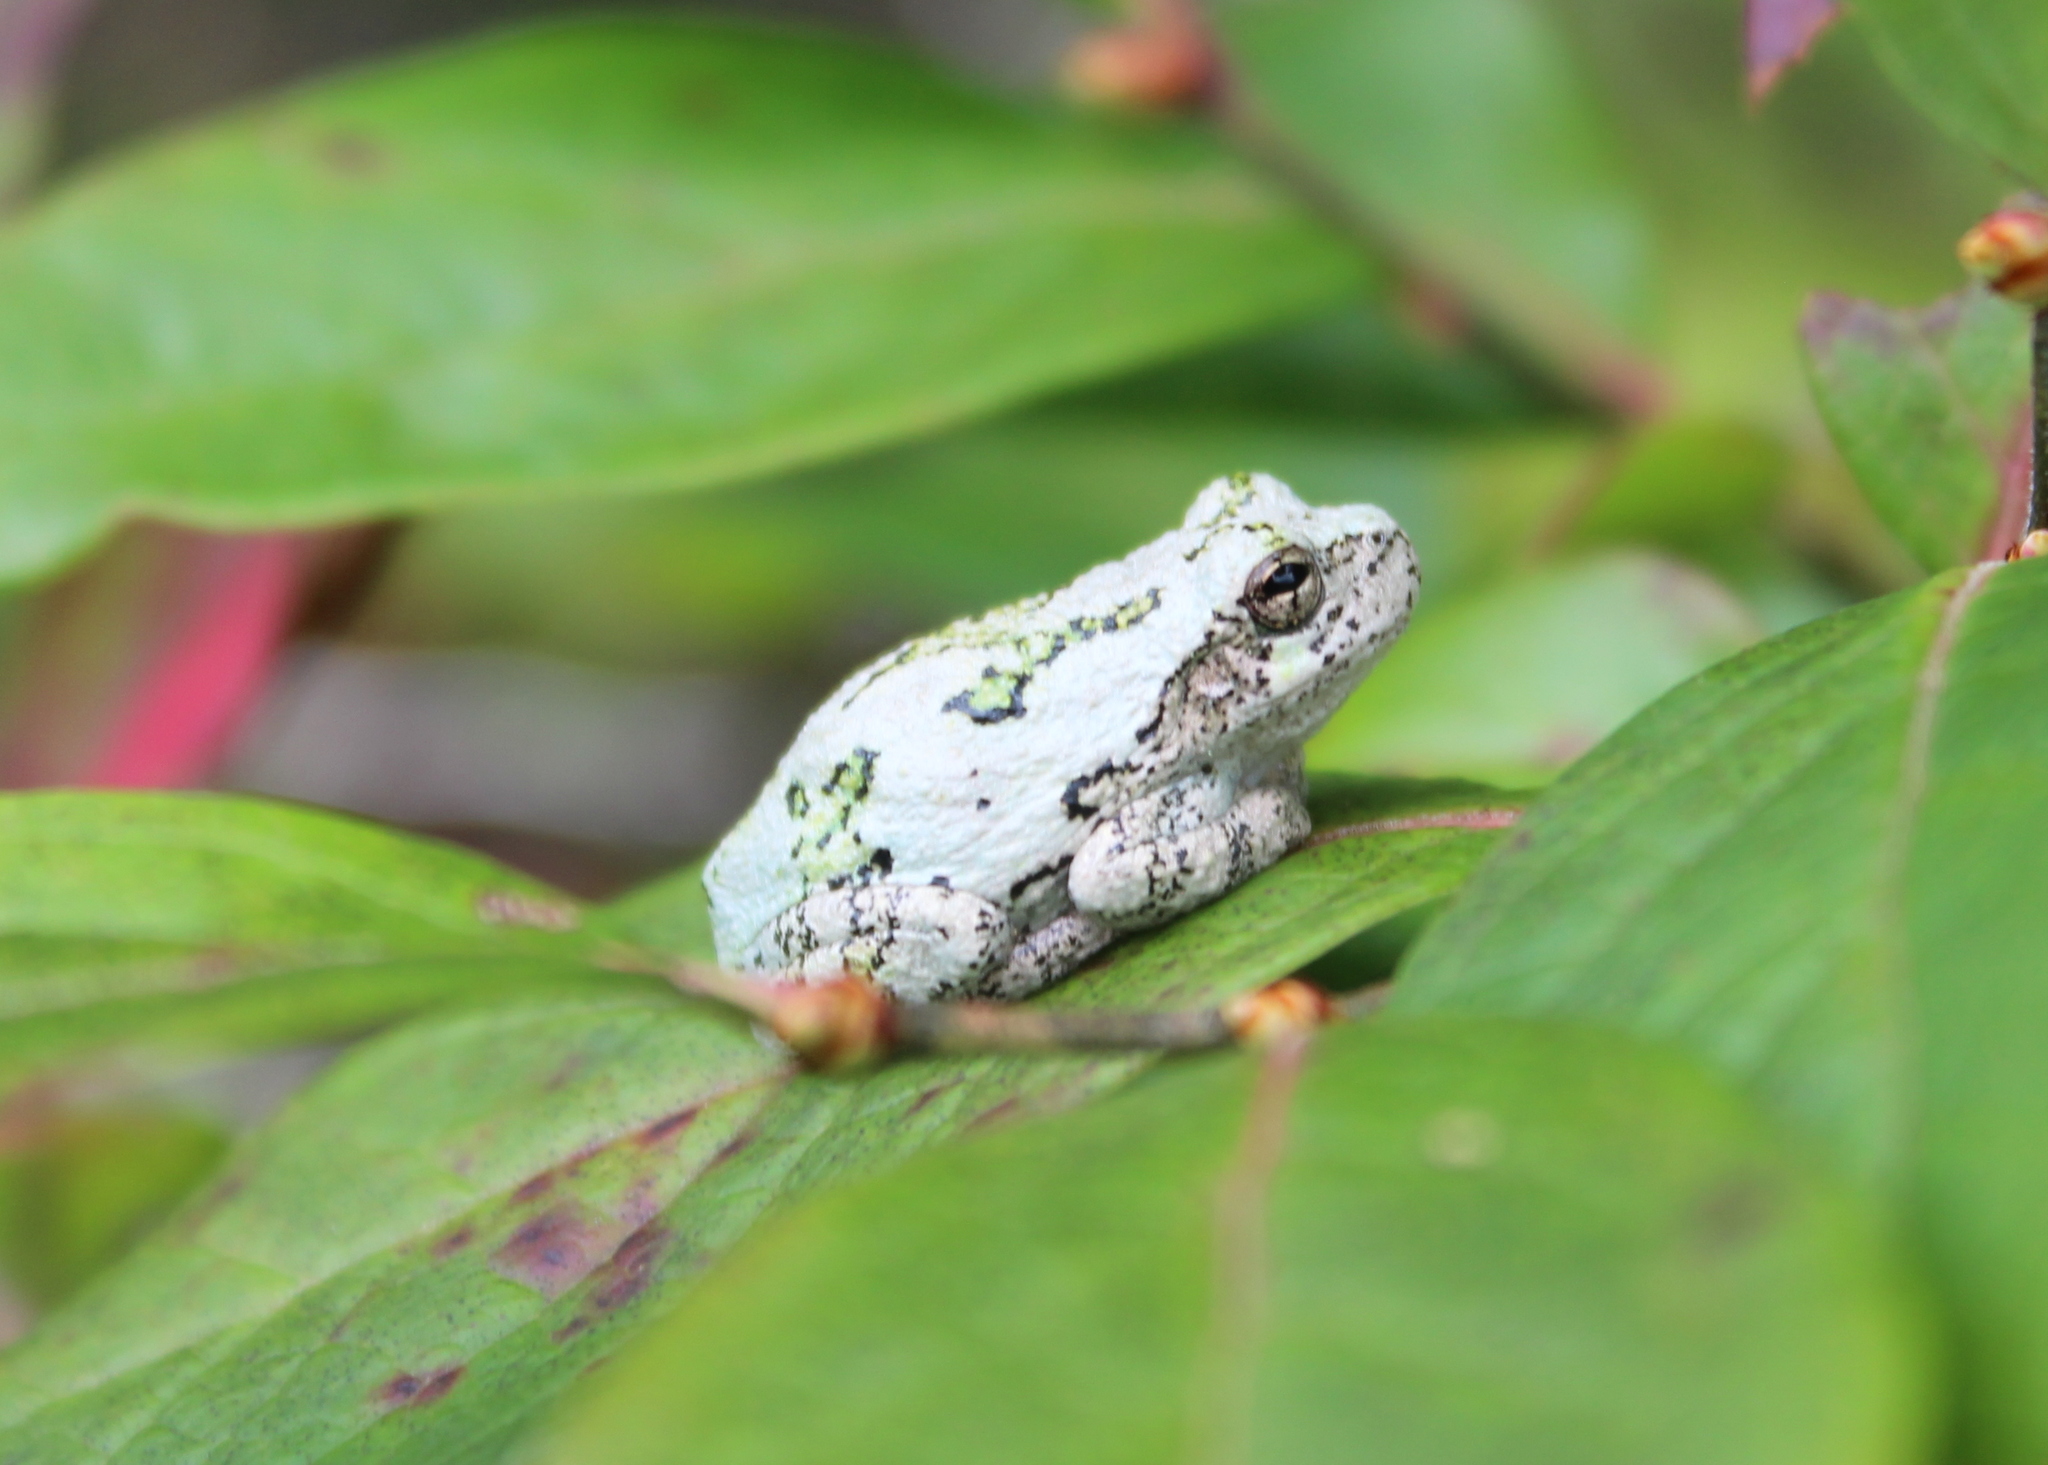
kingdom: Animalia
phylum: Chordata
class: Amphibia
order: Anura
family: Hylidae
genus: Dryophytes
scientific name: Dryophytes versicolor
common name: Gray treefrog
